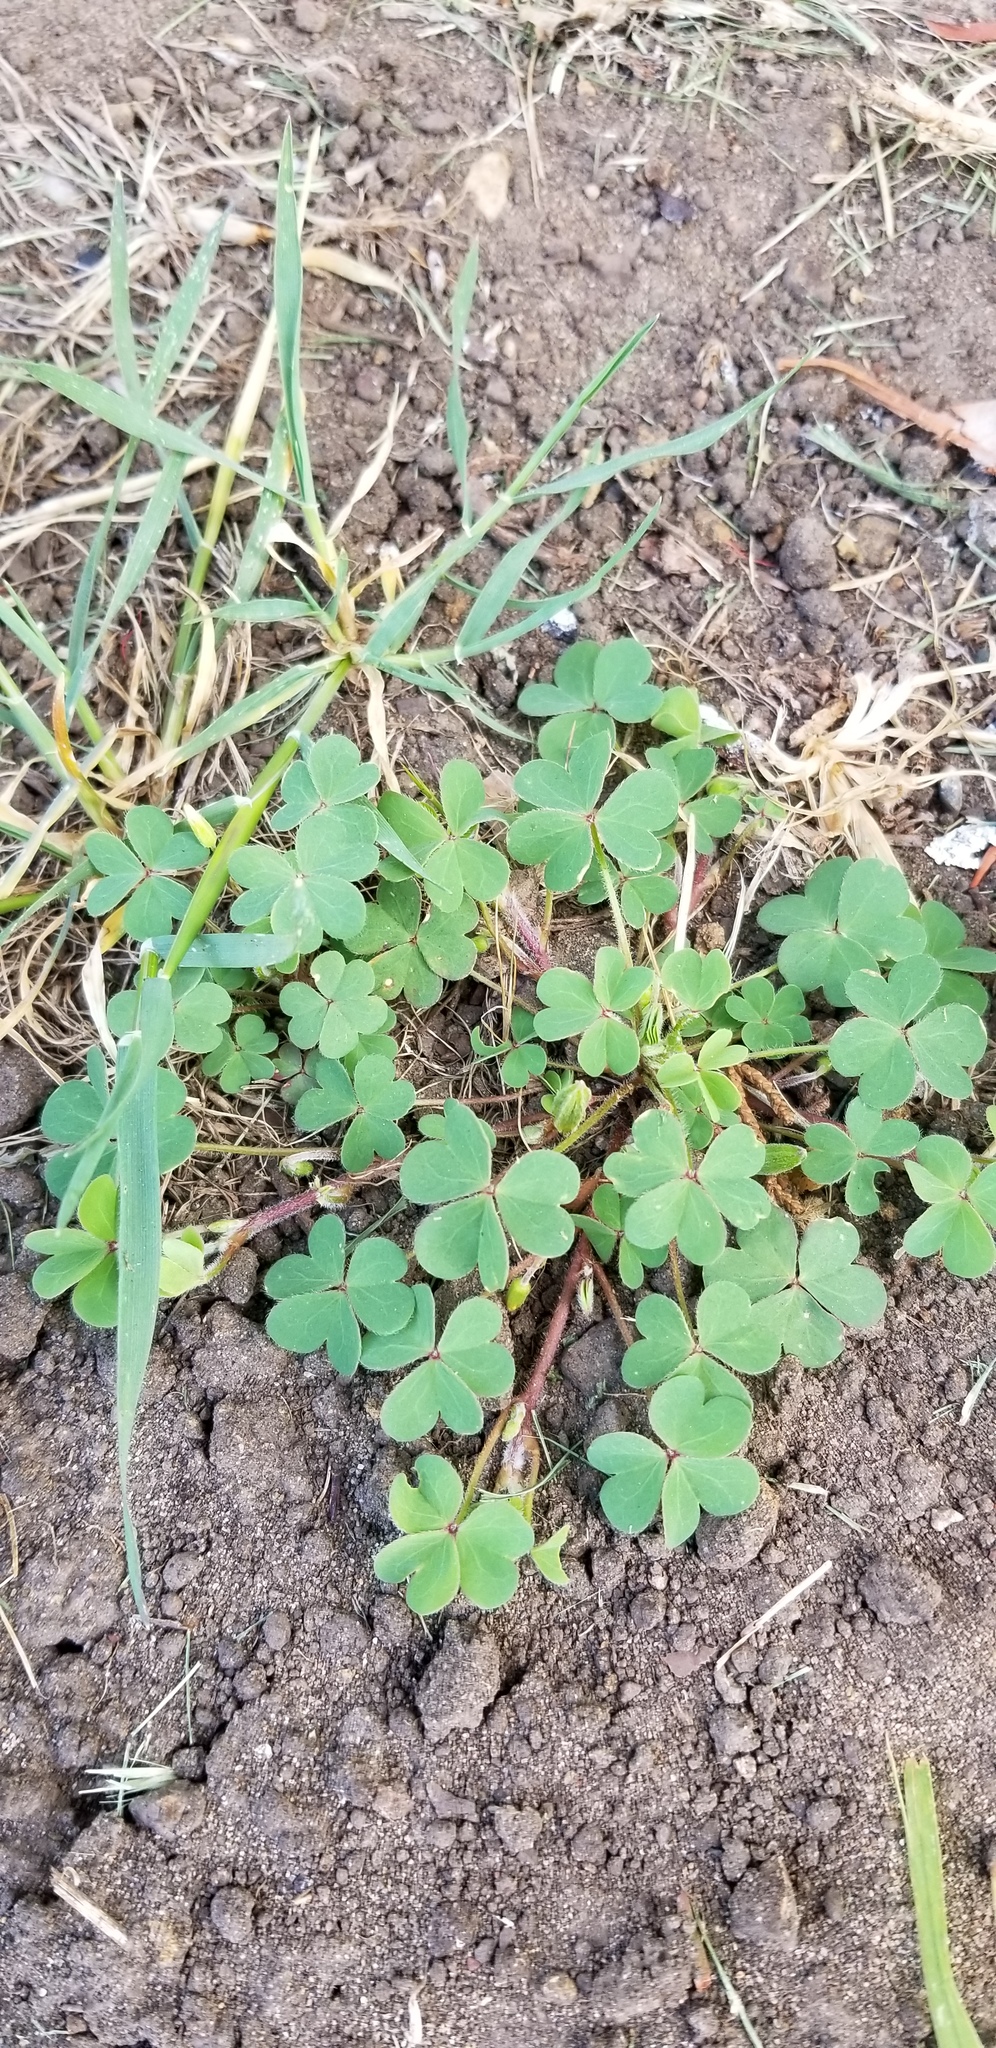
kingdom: Plantae
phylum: Tracheophyta
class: Magnoliopsida
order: Oxalidales
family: Oxalidaceae
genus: Oxalis
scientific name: Oxalis corniculata
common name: Procumbent yellow-sorrel
